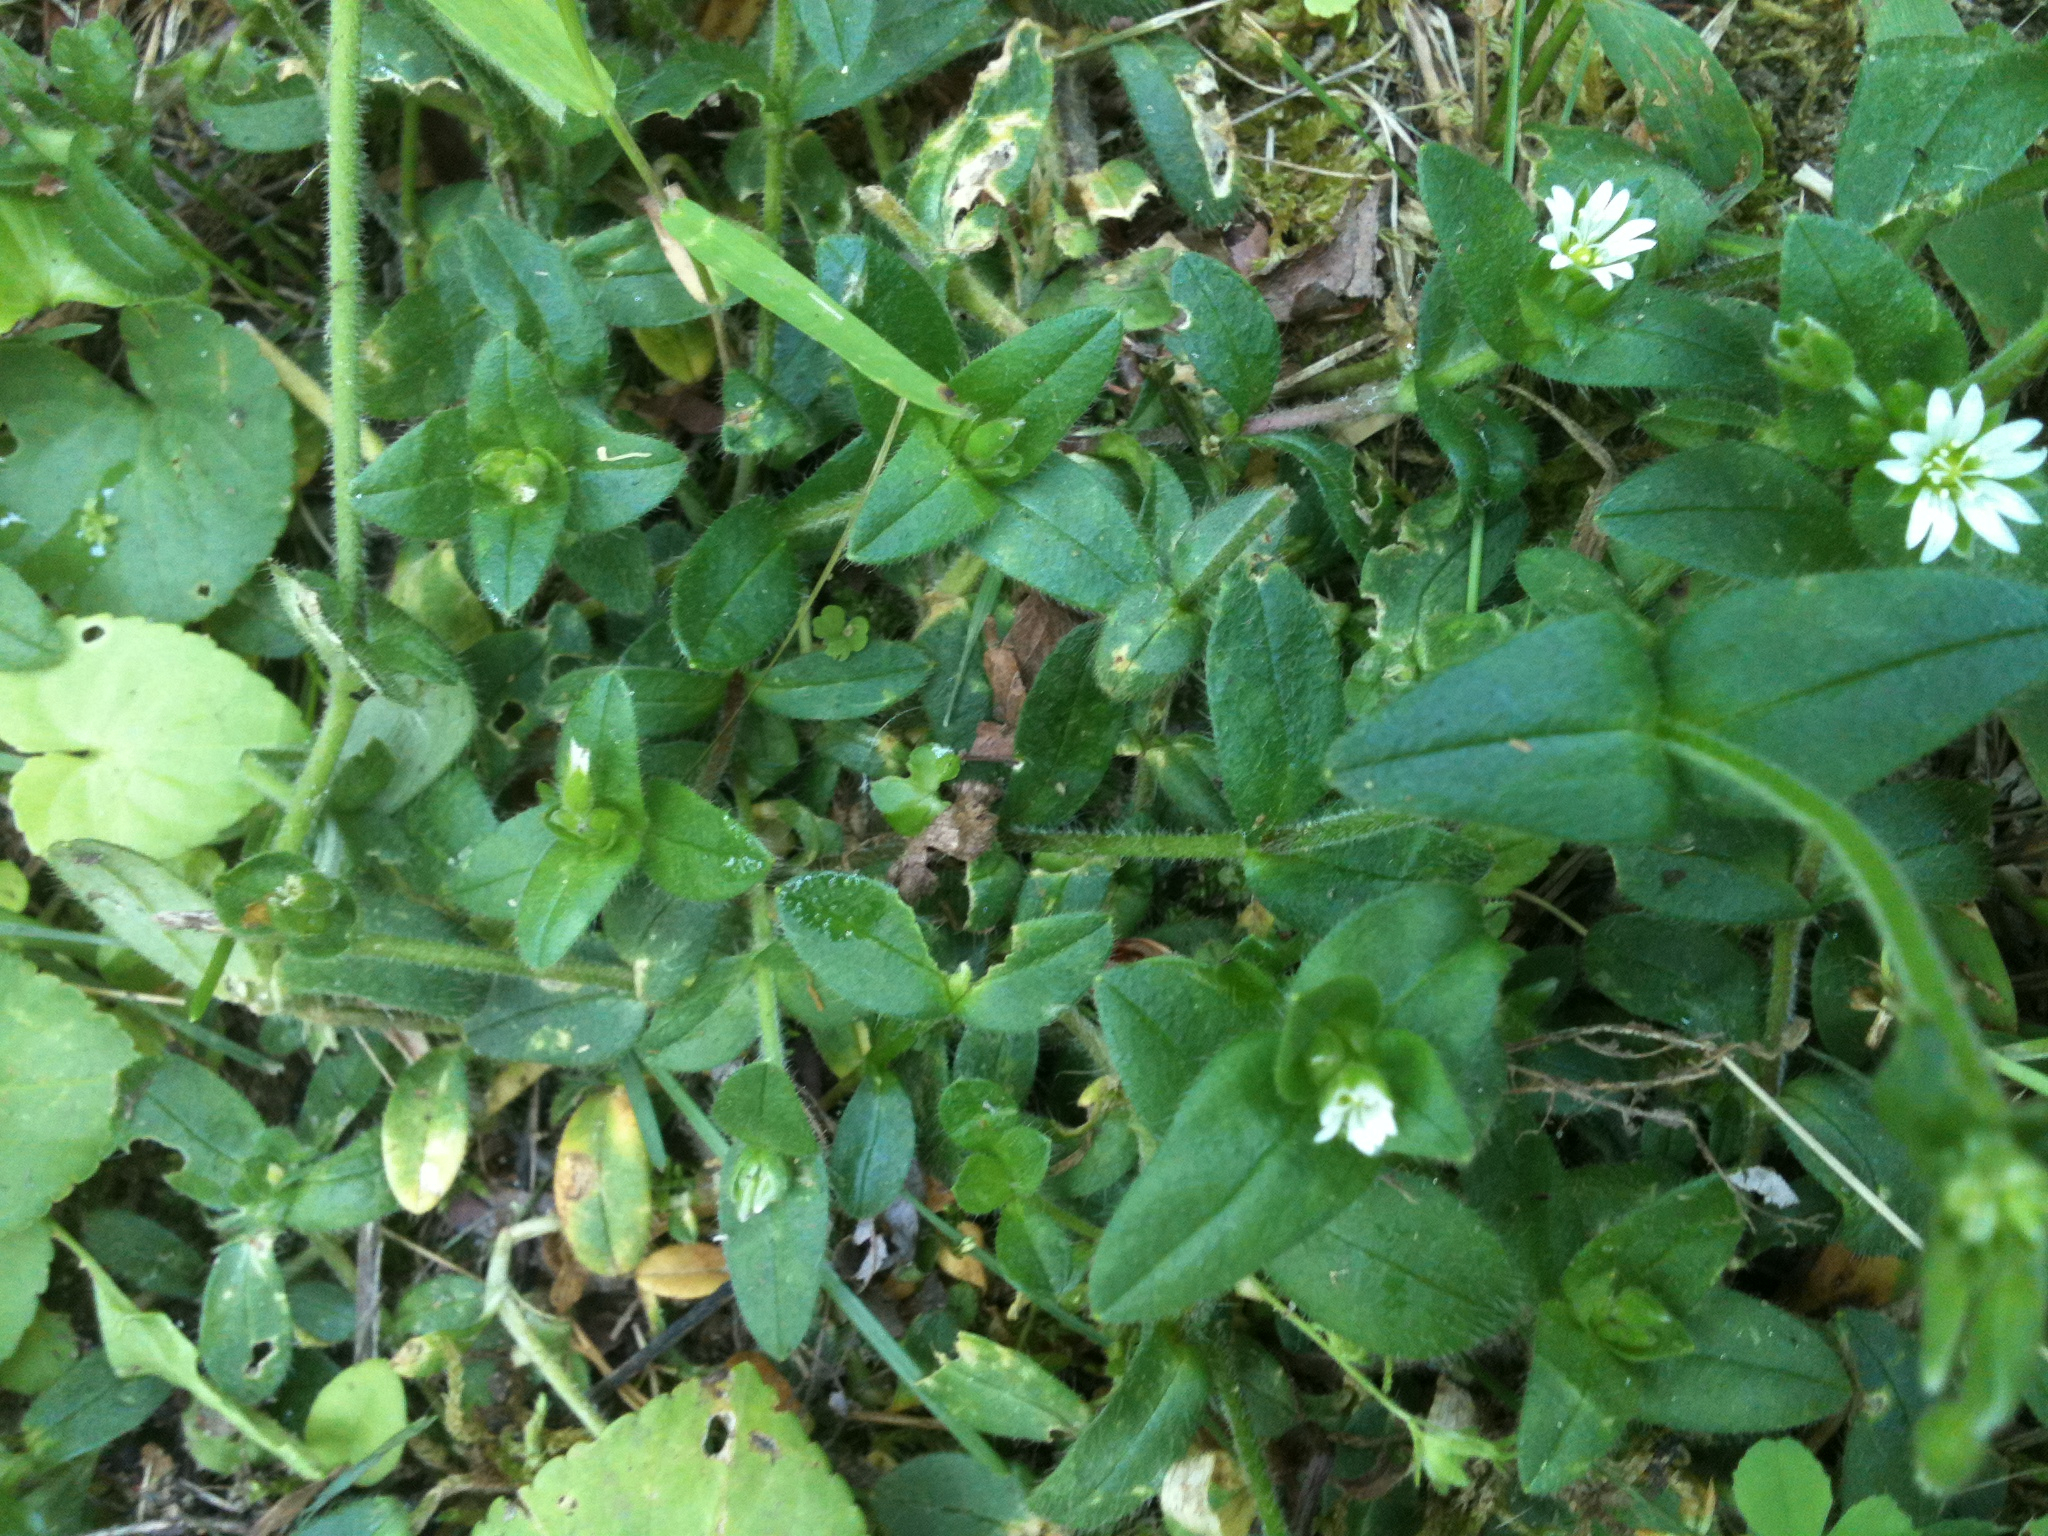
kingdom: Plantae
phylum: Tracheophyta
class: Magnoliopsida
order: Caryophyllales
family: Caryophyllaceae
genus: Cerastium
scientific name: Cerastium fontanum
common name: Common mouse-ear
